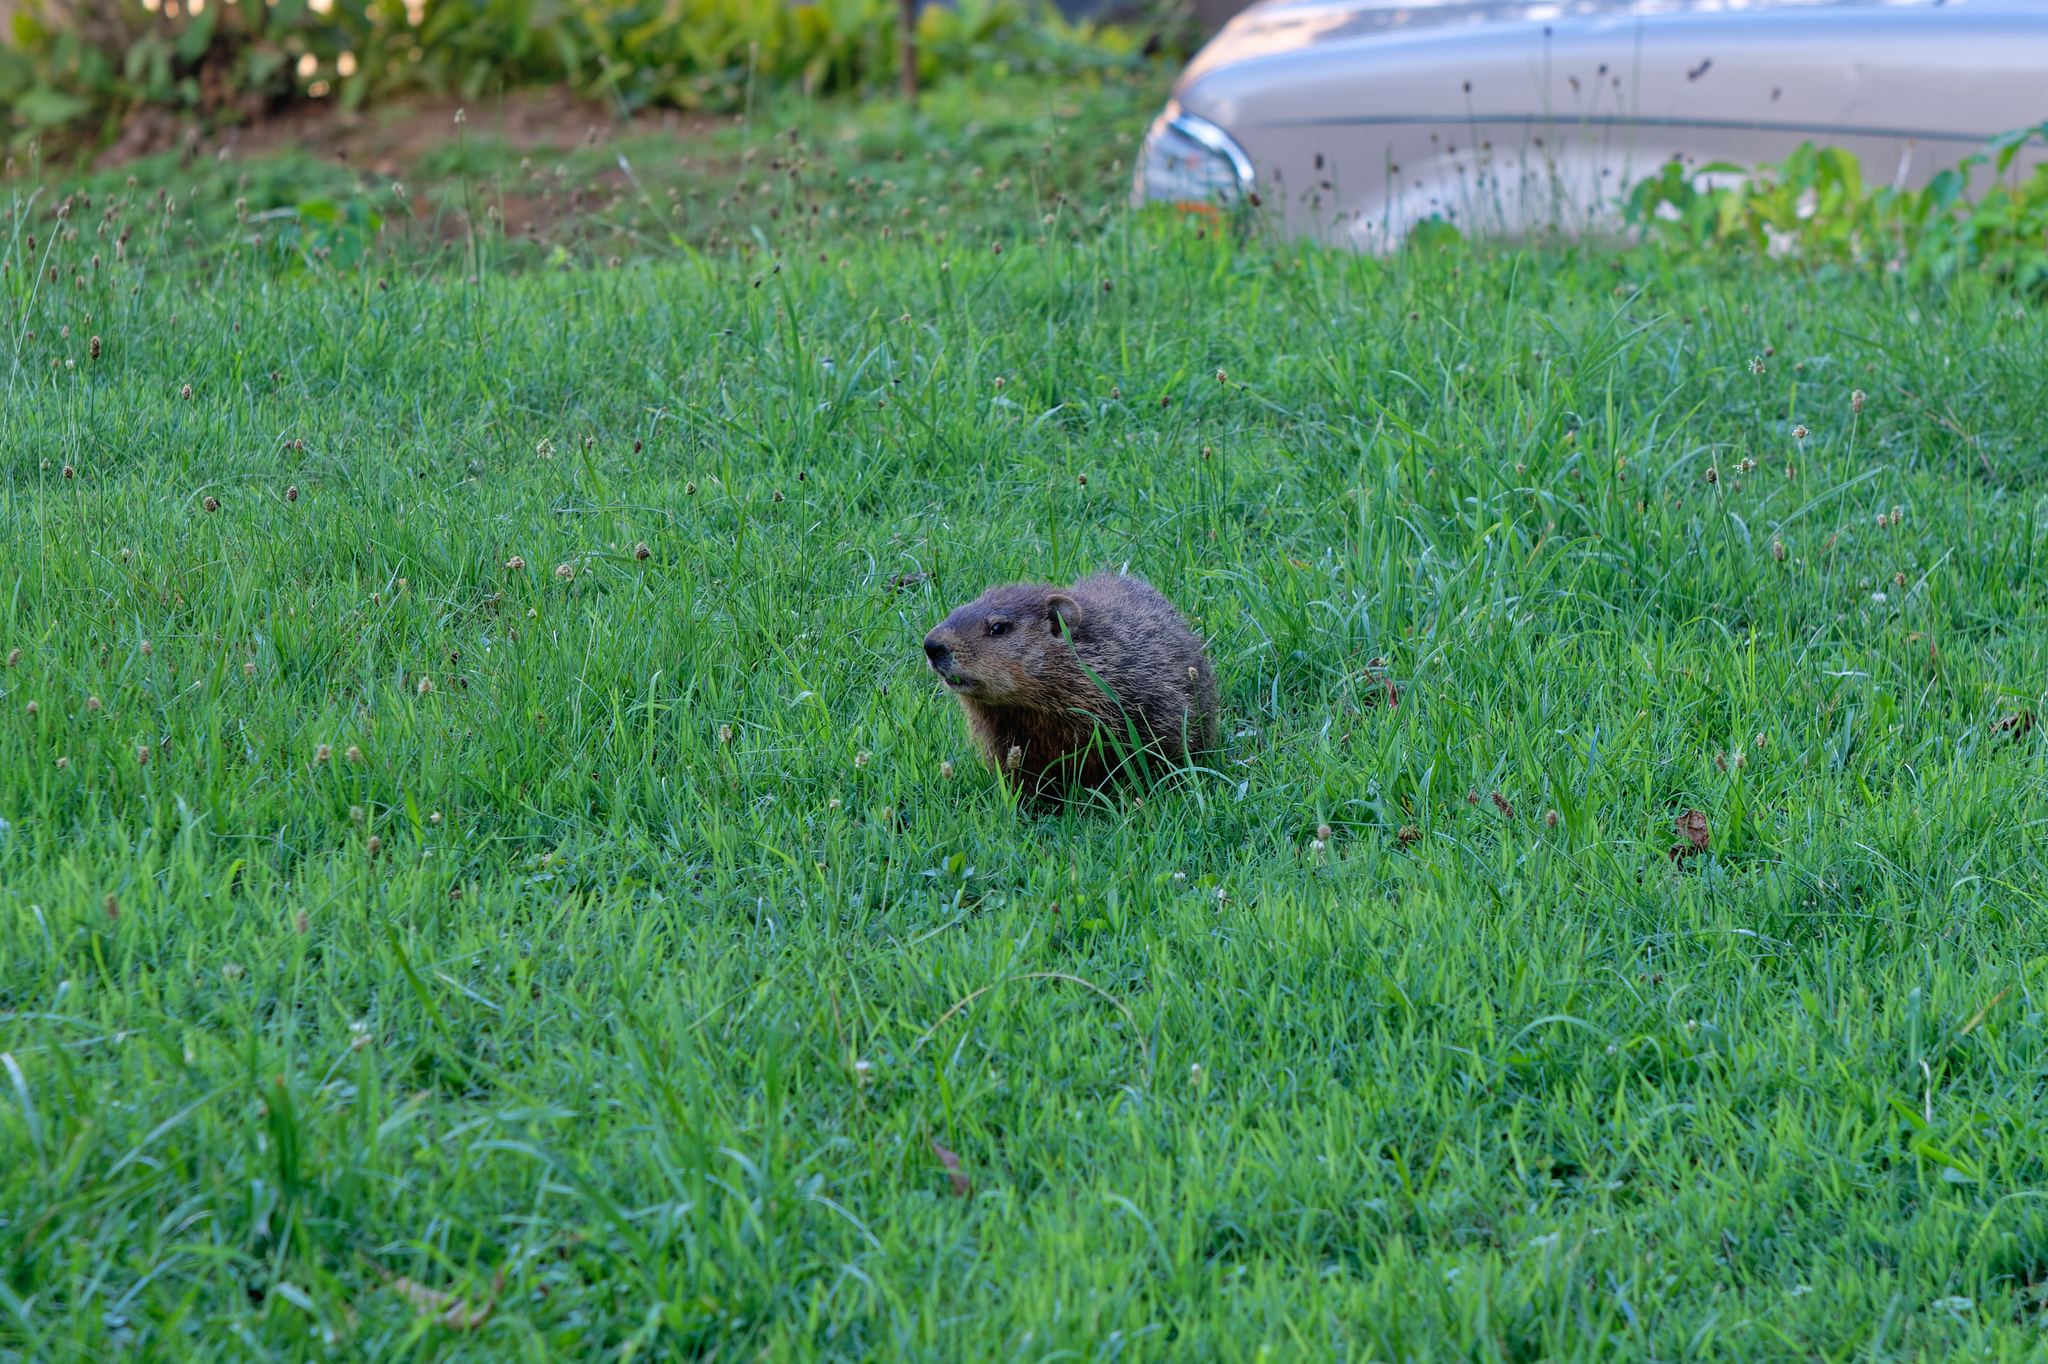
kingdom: Animalia
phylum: Chordata
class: Mammalia
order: Rodentia
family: Sciuridae
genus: Marmota
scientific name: Marmota monax
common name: Groundhog
